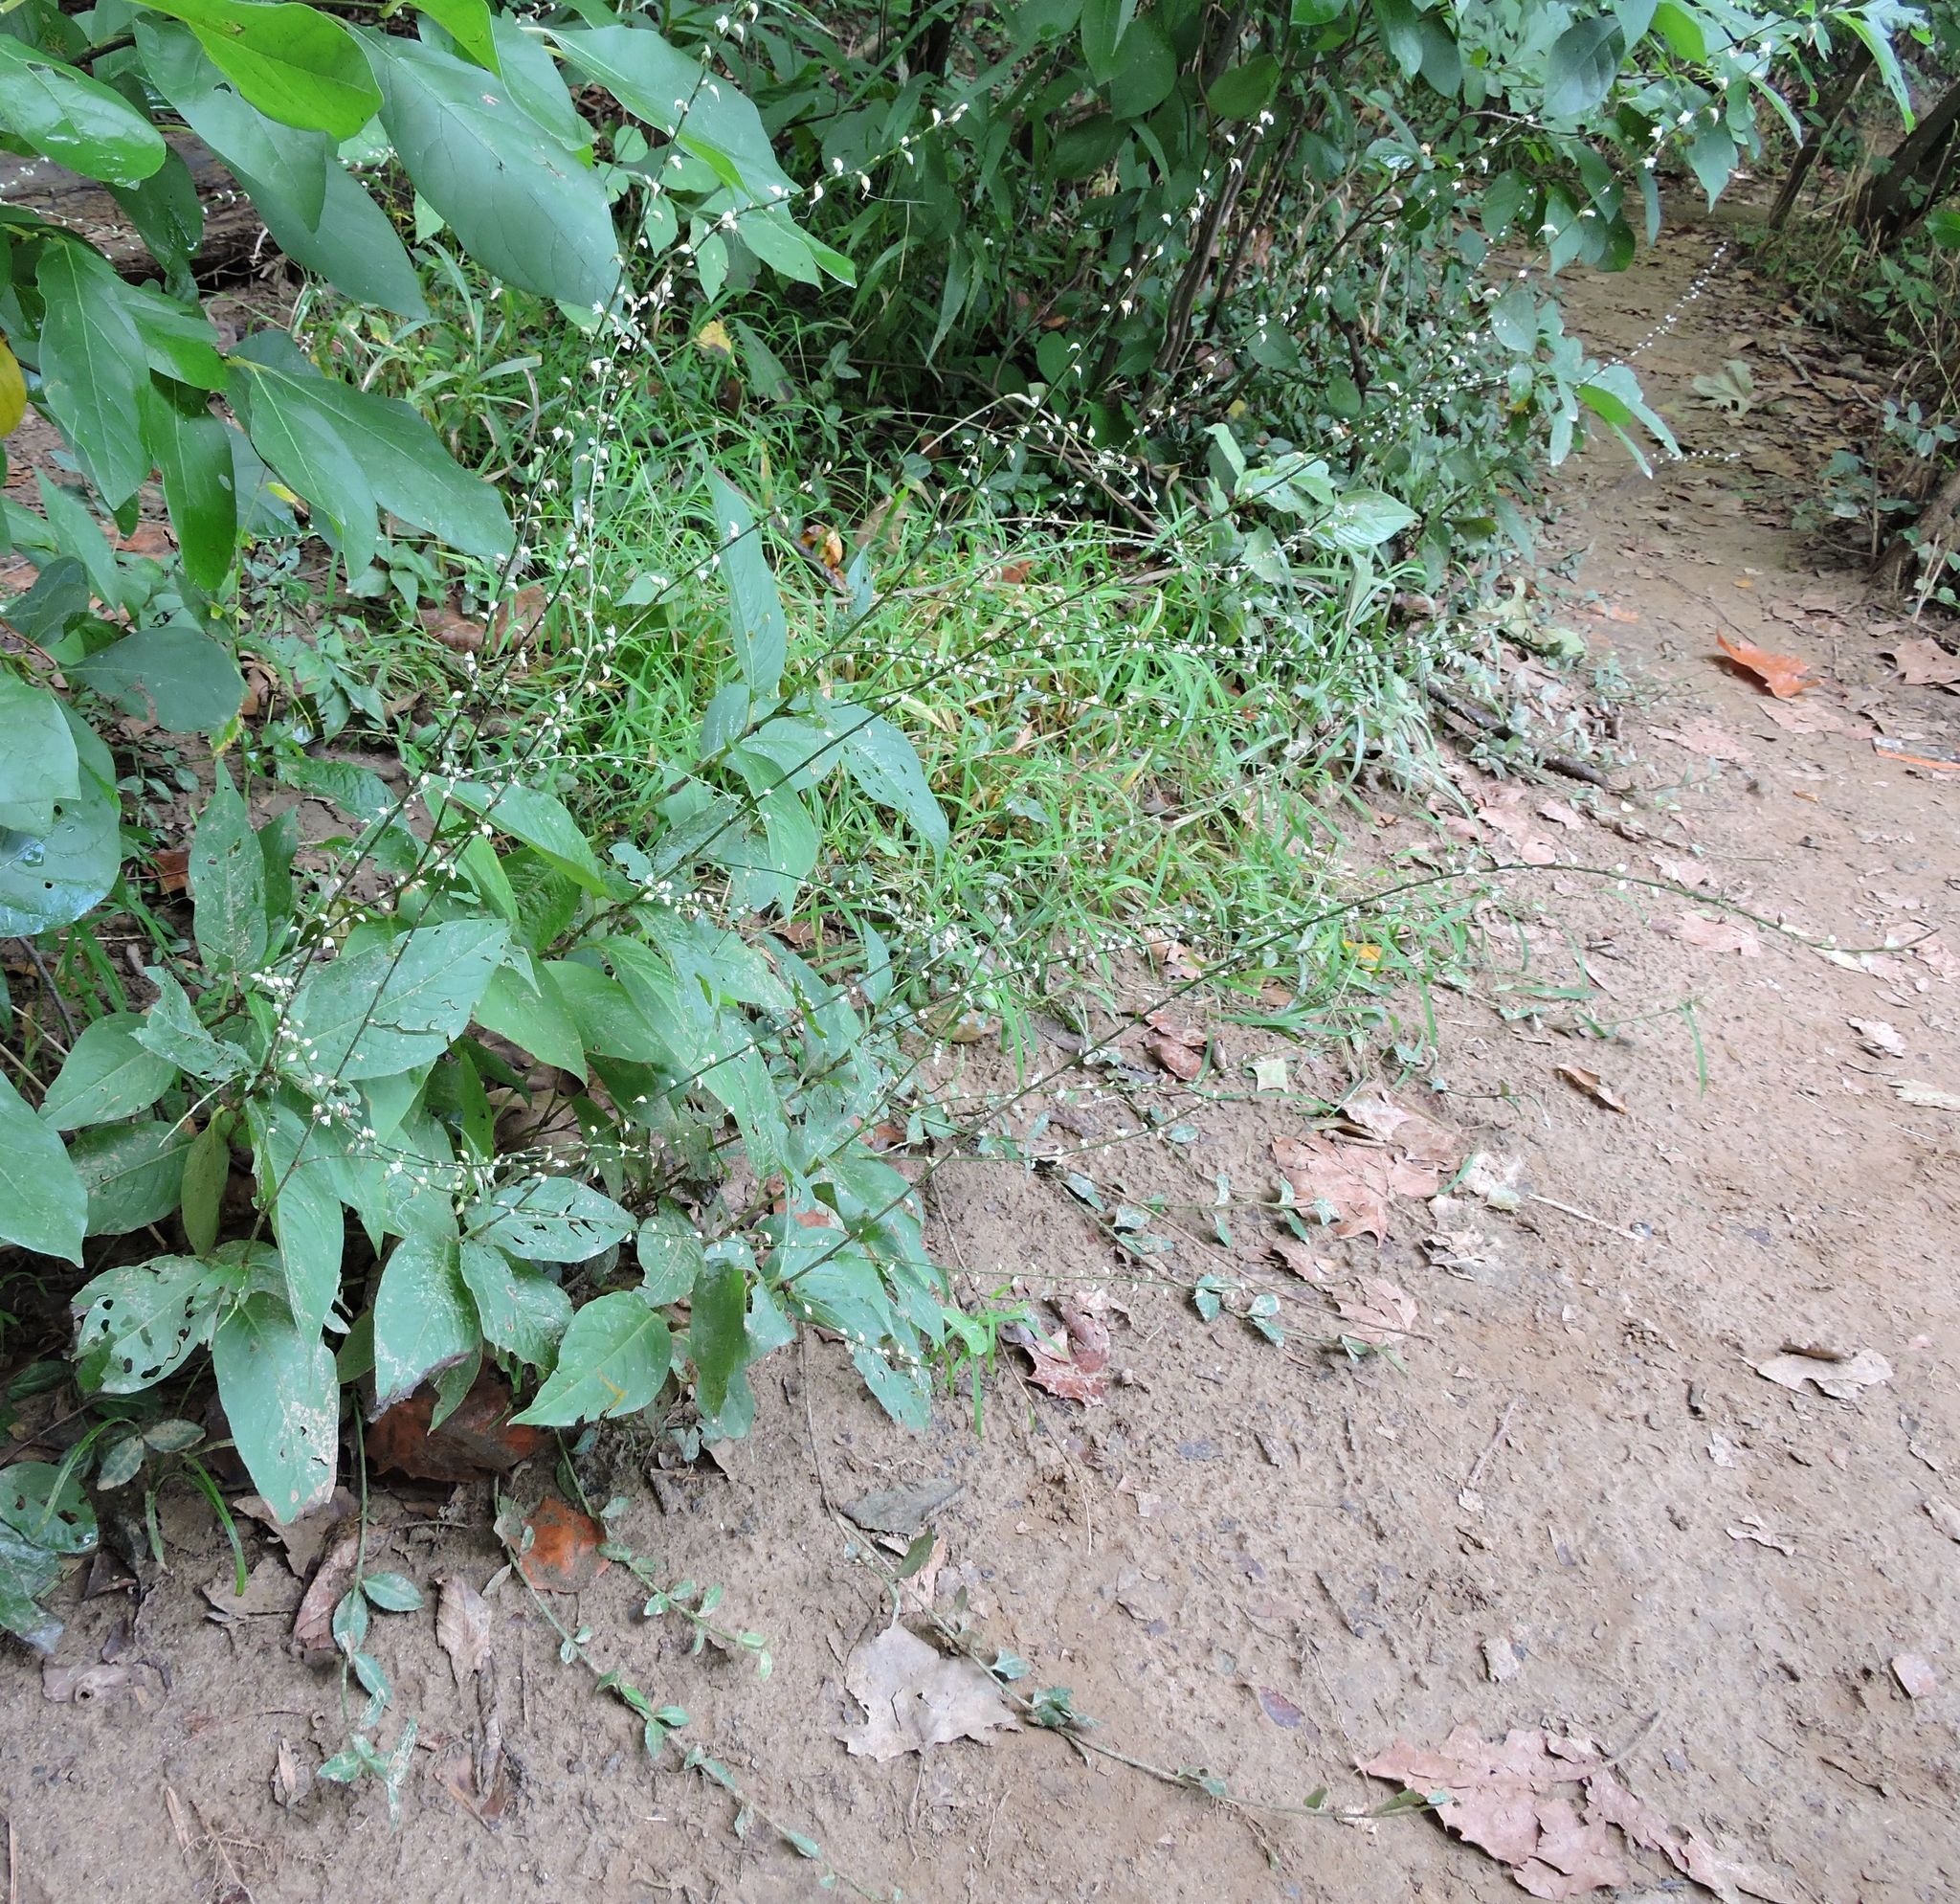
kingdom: Plantae
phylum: Tracheophyta
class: Magnoliopsida
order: Caryophyllales
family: Polygonaceae
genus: Persicaria
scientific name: Persicaria virginiana
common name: Jumpseed
